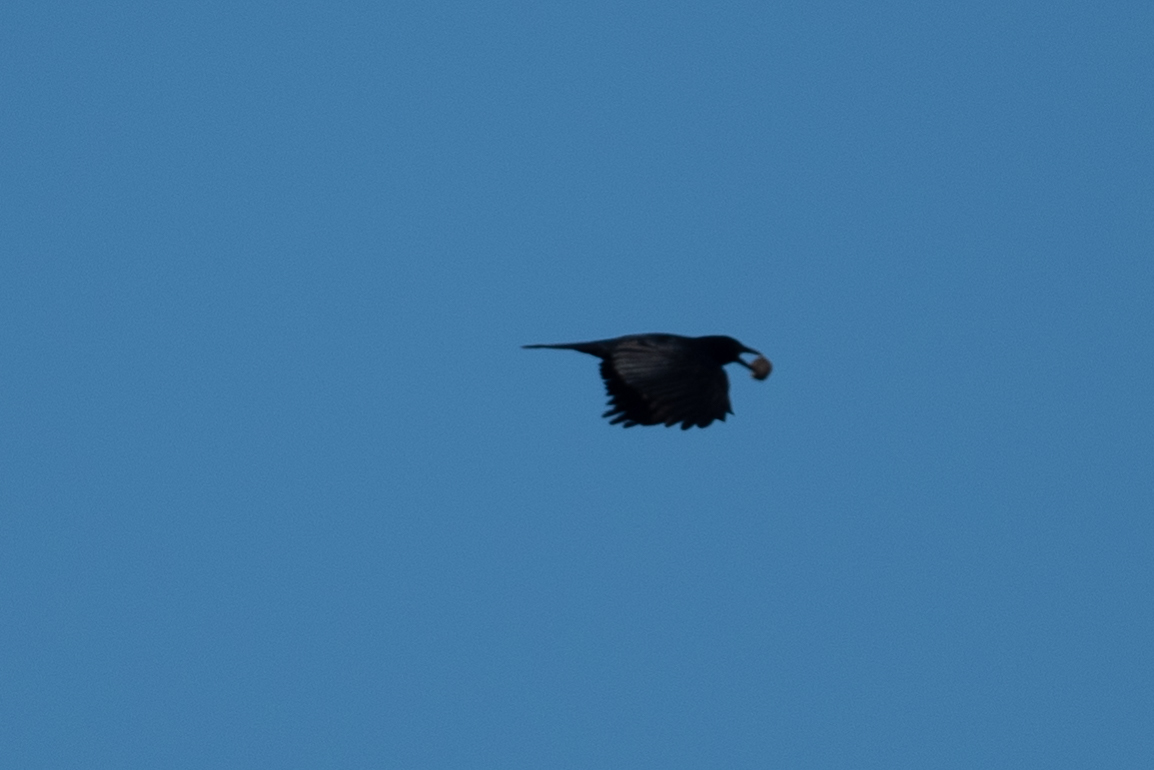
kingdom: Animalia
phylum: Chordata
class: Aves
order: Passeriformes
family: Corvidae
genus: Corvus
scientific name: Corvus brachyrhynchos
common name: American crow
